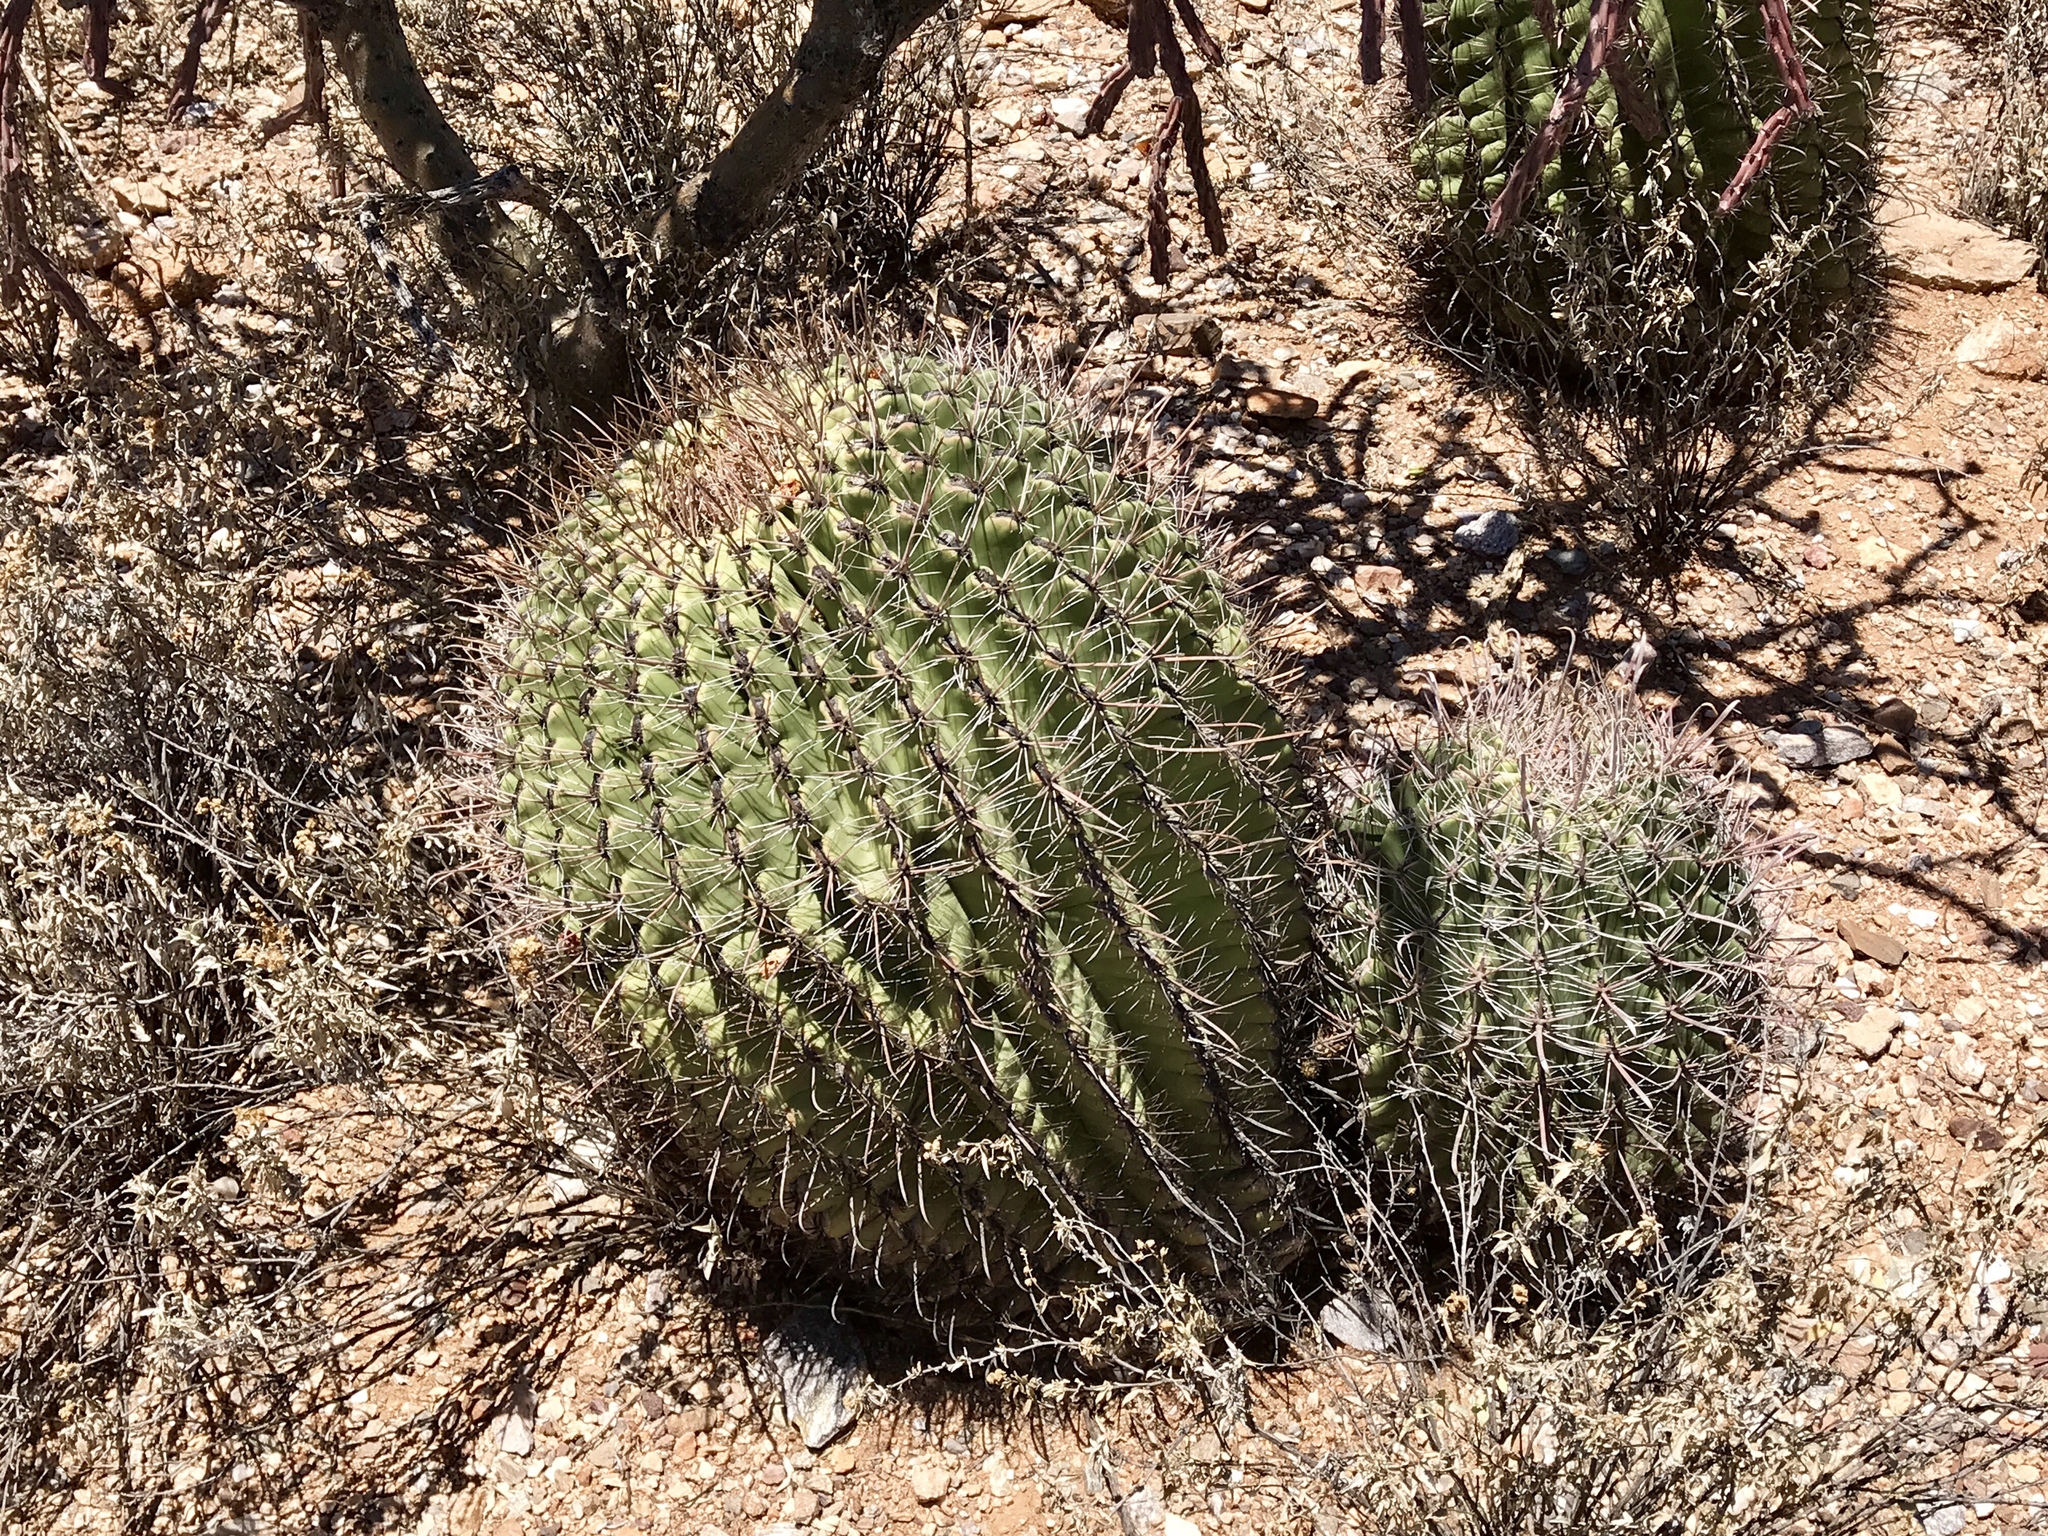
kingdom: Plantae
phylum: Tracheophyta
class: Magnoliopsida
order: Caryophyllales
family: Cactaceae
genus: Ferocactus
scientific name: Ferocactus wislizeni
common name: Candy barrel cactus
